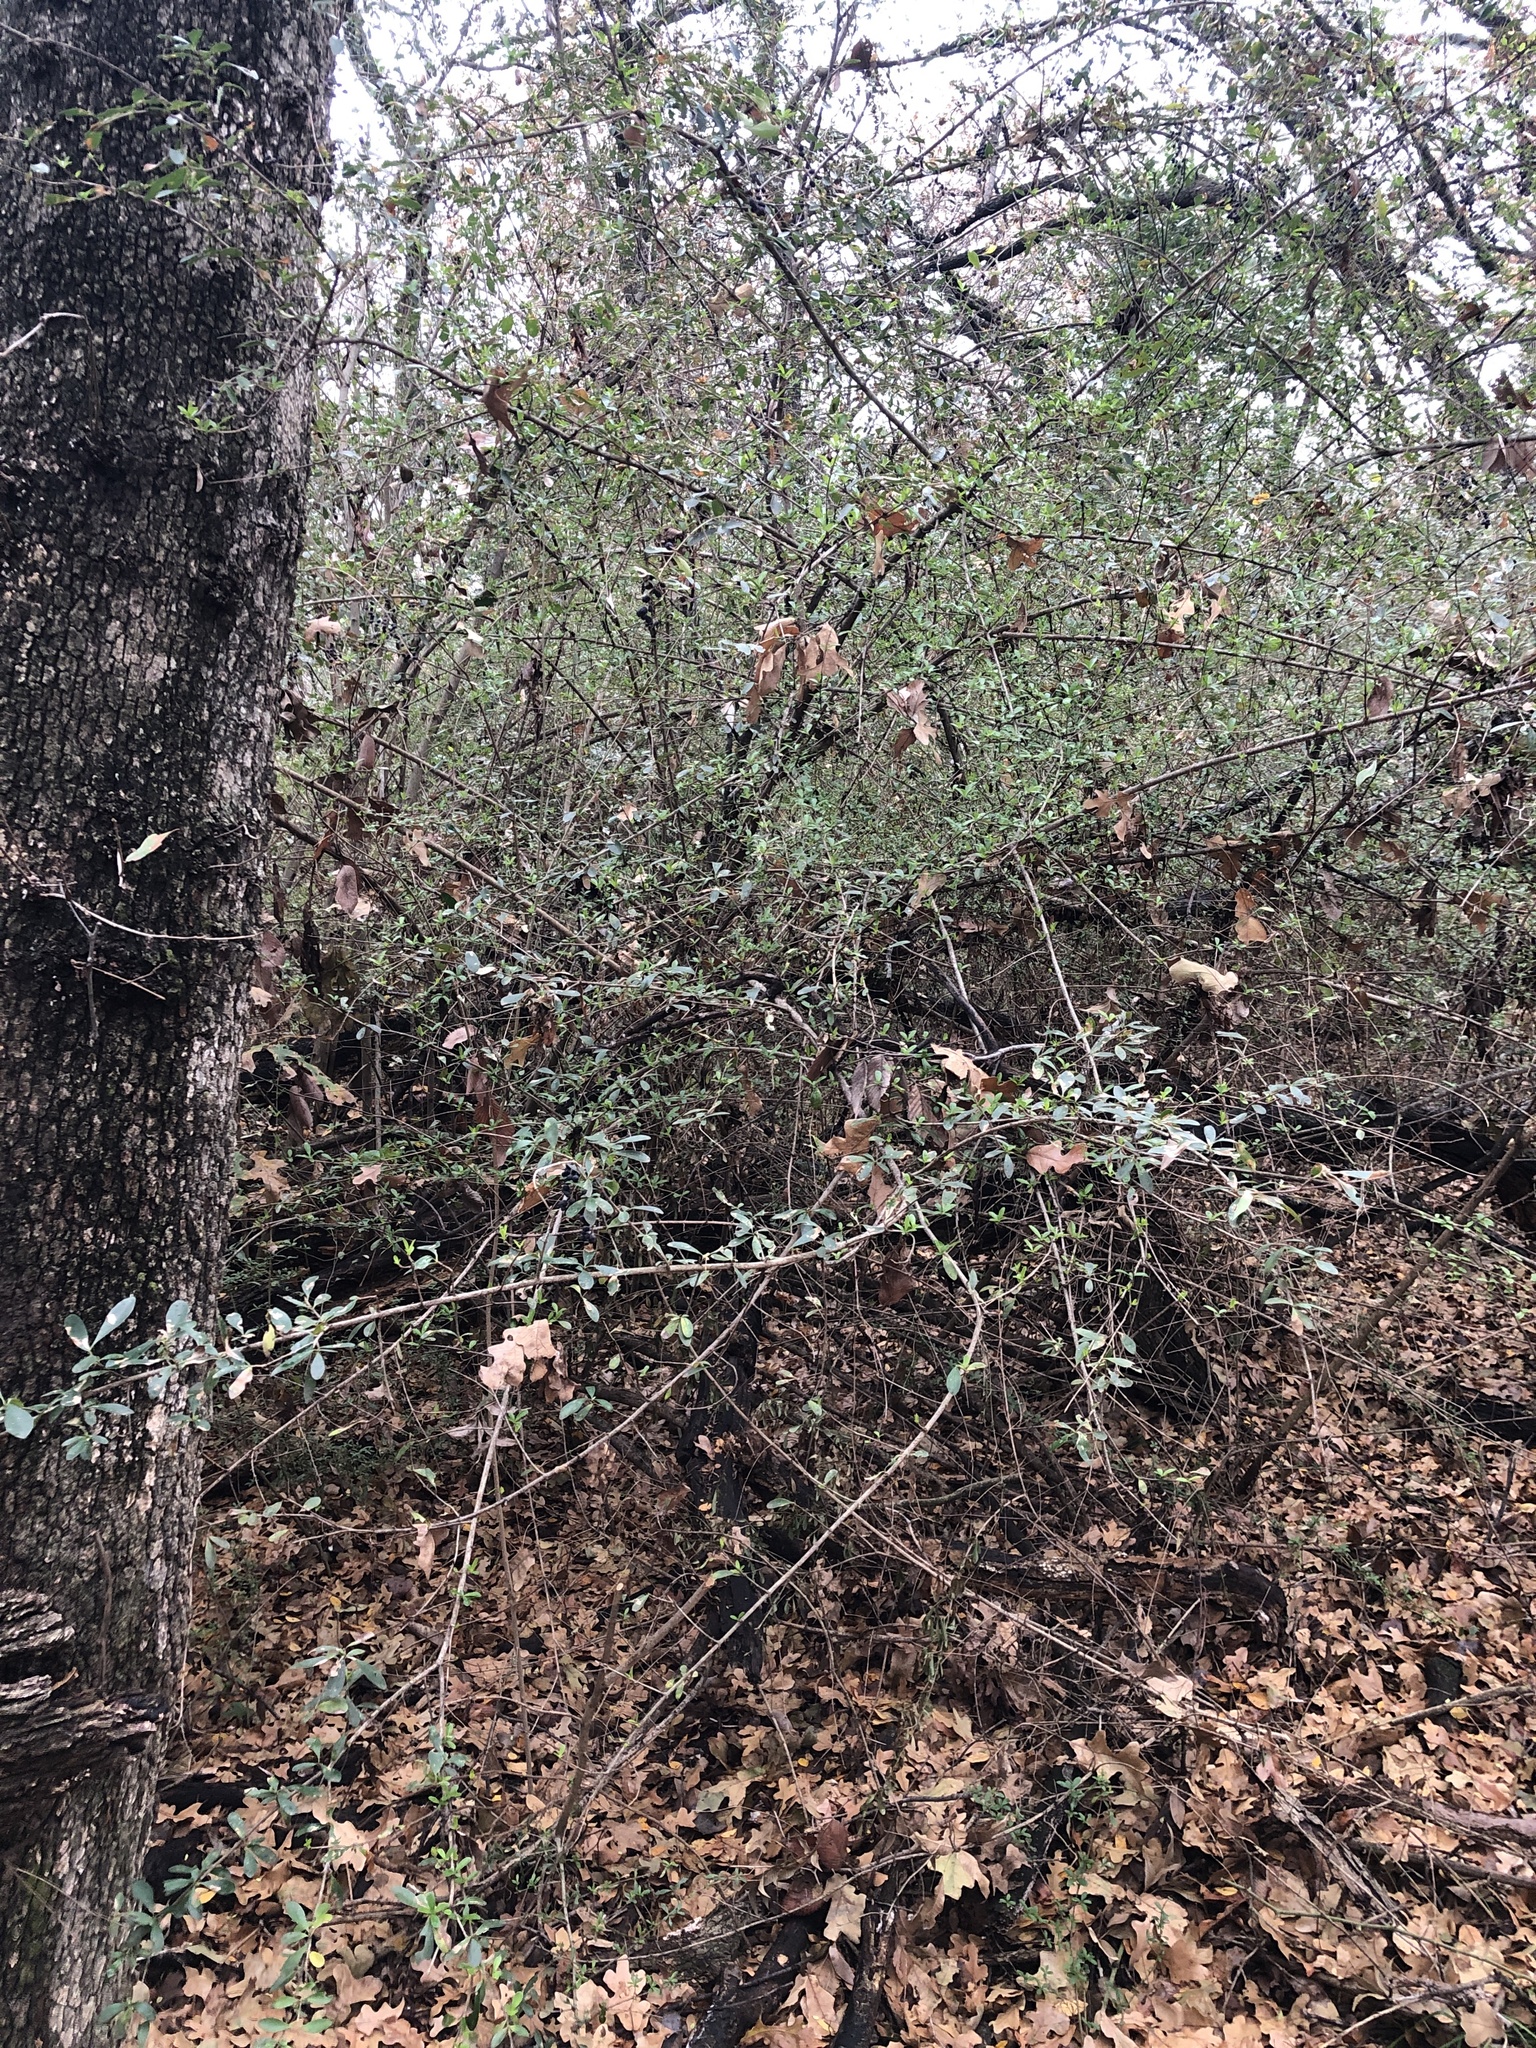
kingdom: Plantae
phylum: Tracheophyta
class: Magnoliopsida
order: Lamiales
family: Oleaceae
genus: Ligustrum
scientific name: Ligustrum quihoui
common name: Waxyleaf privet
